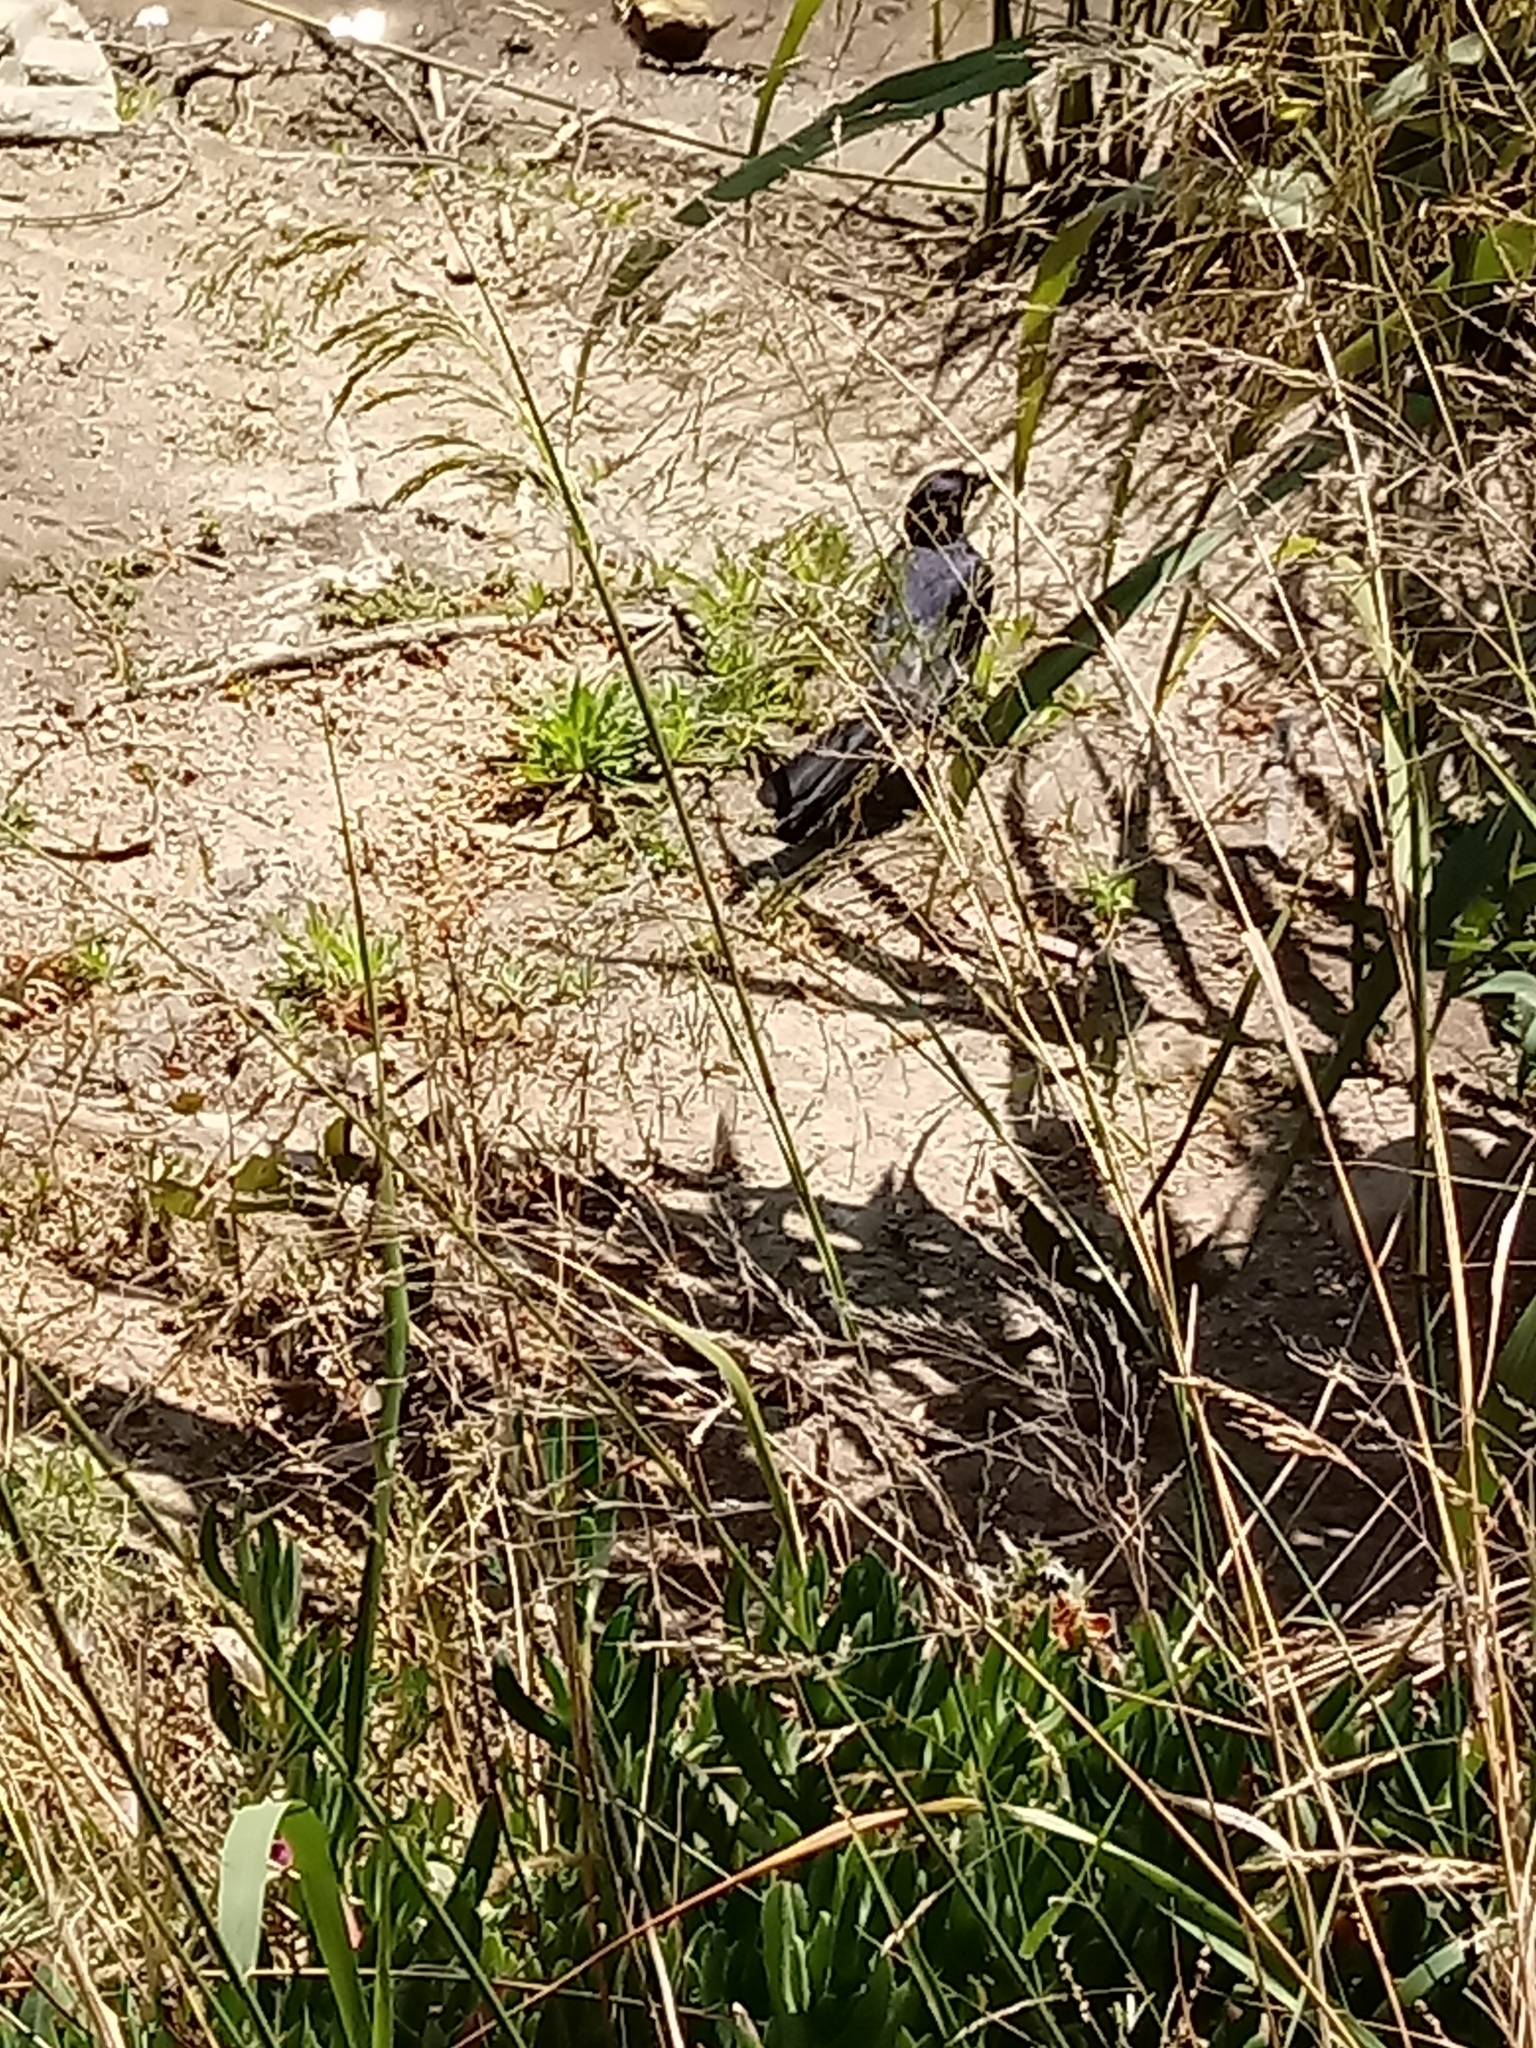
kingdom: Animalia
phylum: Chordata
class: Aves
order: Passeriformes
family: Icteridae
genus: Quiscalus
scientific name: Quiscalus mexicanus
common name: Great-tailed grackle
